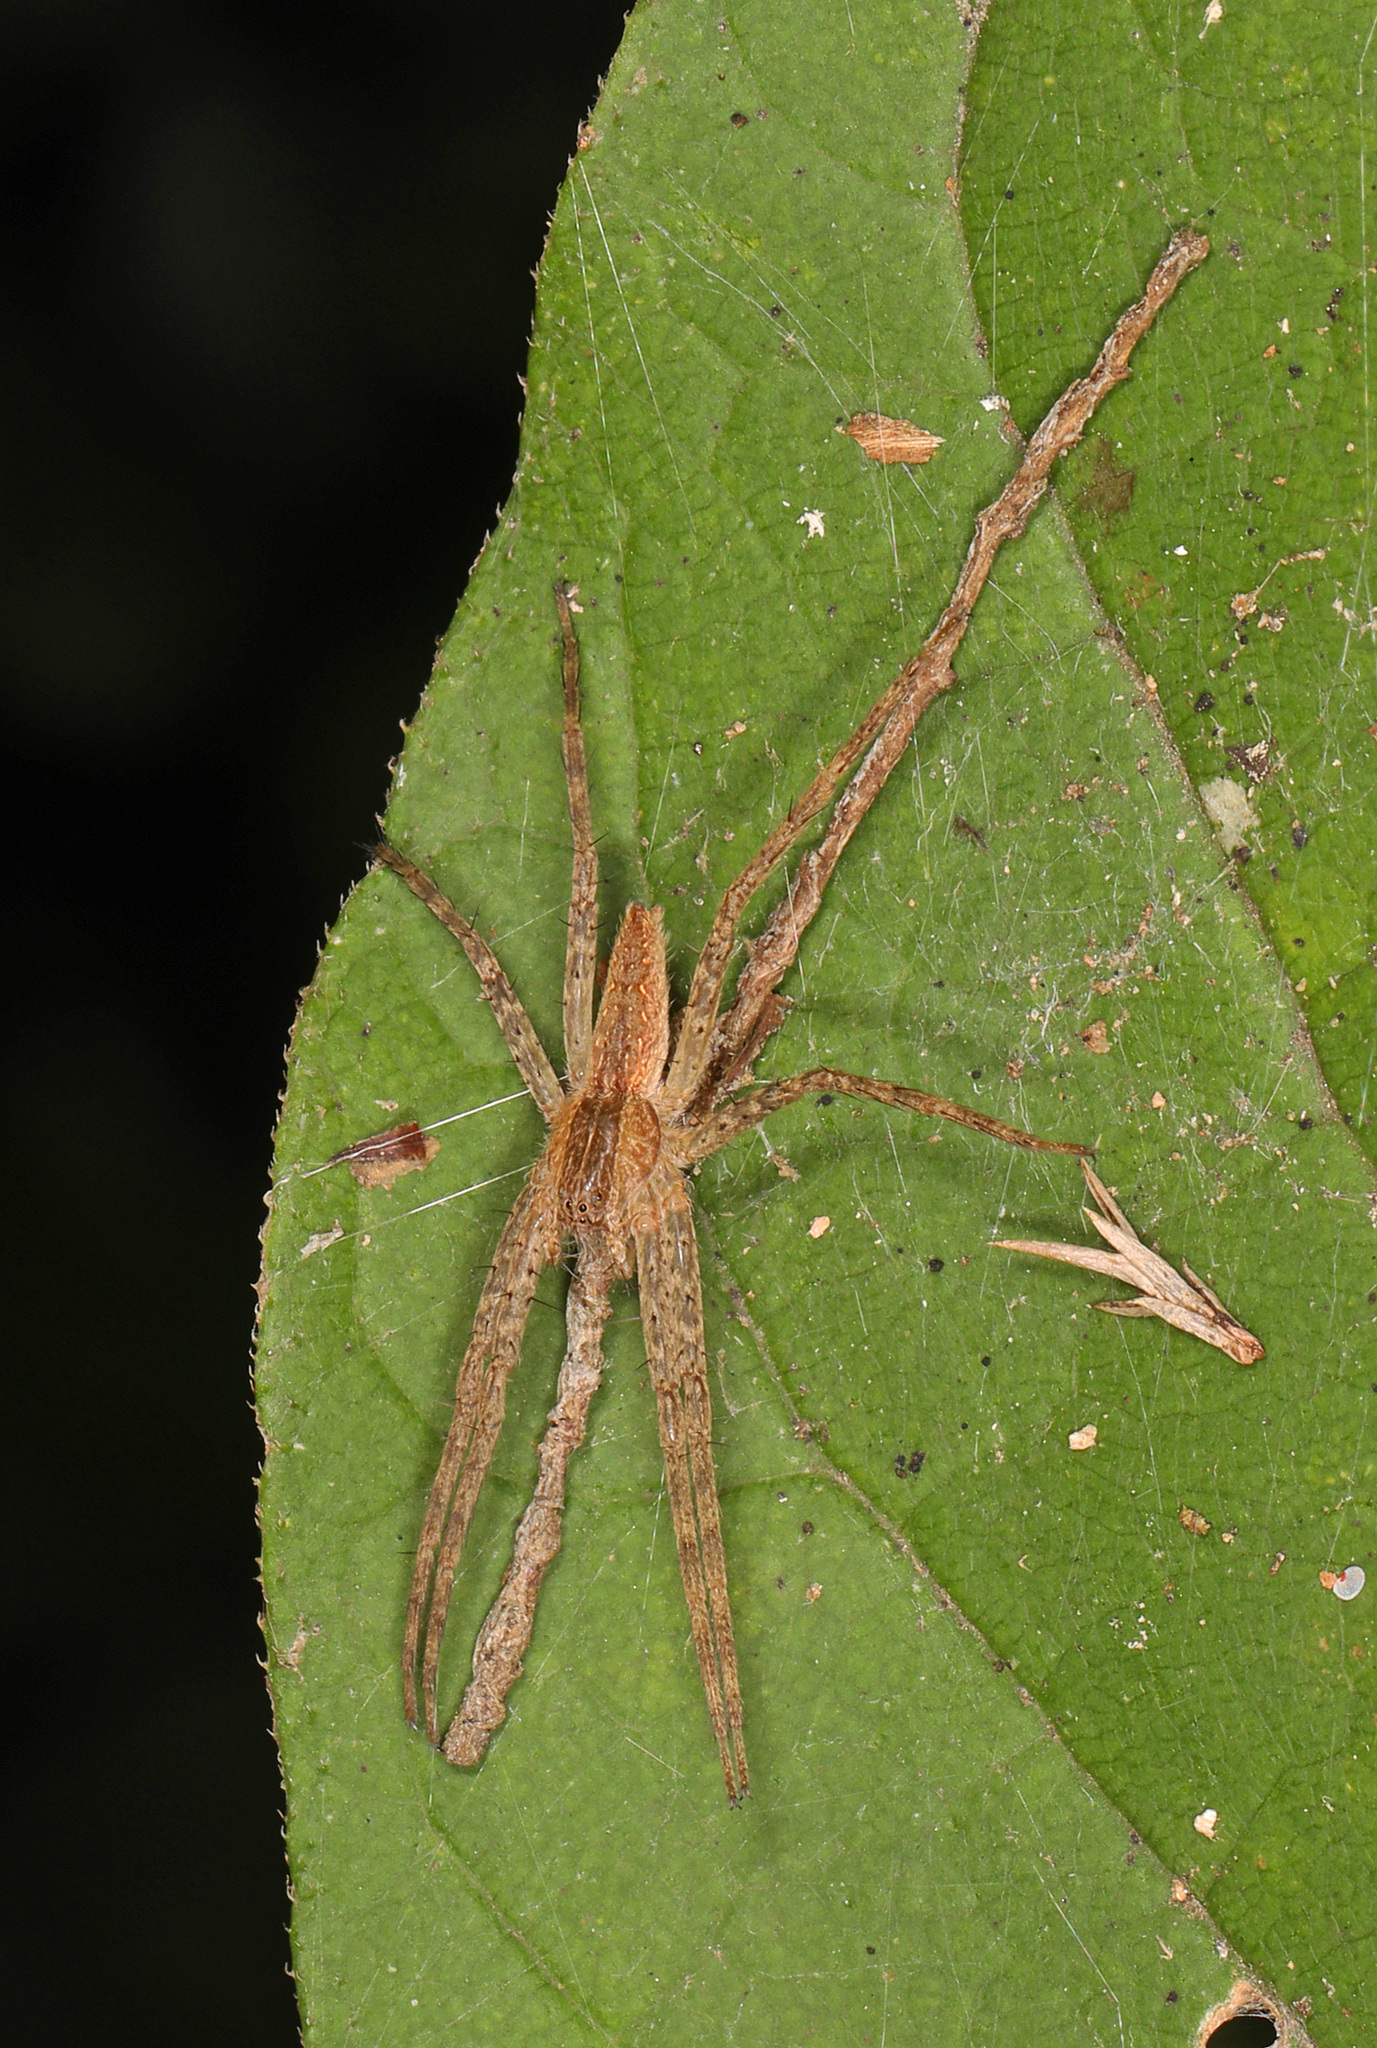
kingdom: Animalia
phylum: Arthropoda
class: Arachnida
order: Araneae
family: Pisauridae
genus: Pisaurina
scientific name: Pisaurina mira
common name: American nursery web spider
